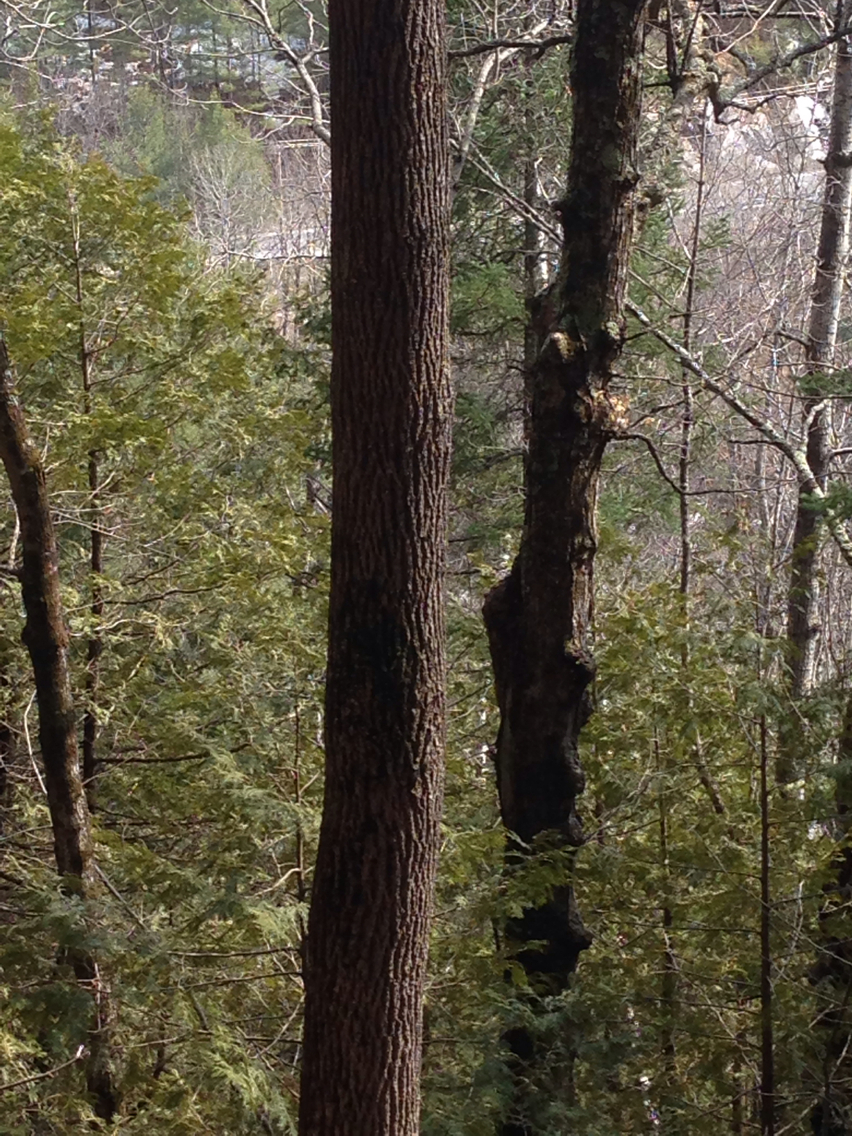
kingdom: Plantae
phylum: Tracheophyta
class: Magnoliopsida
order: Lamiales
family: Oleaceae
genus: Fraxinus
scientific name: Fraxinus americana
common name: White ash
